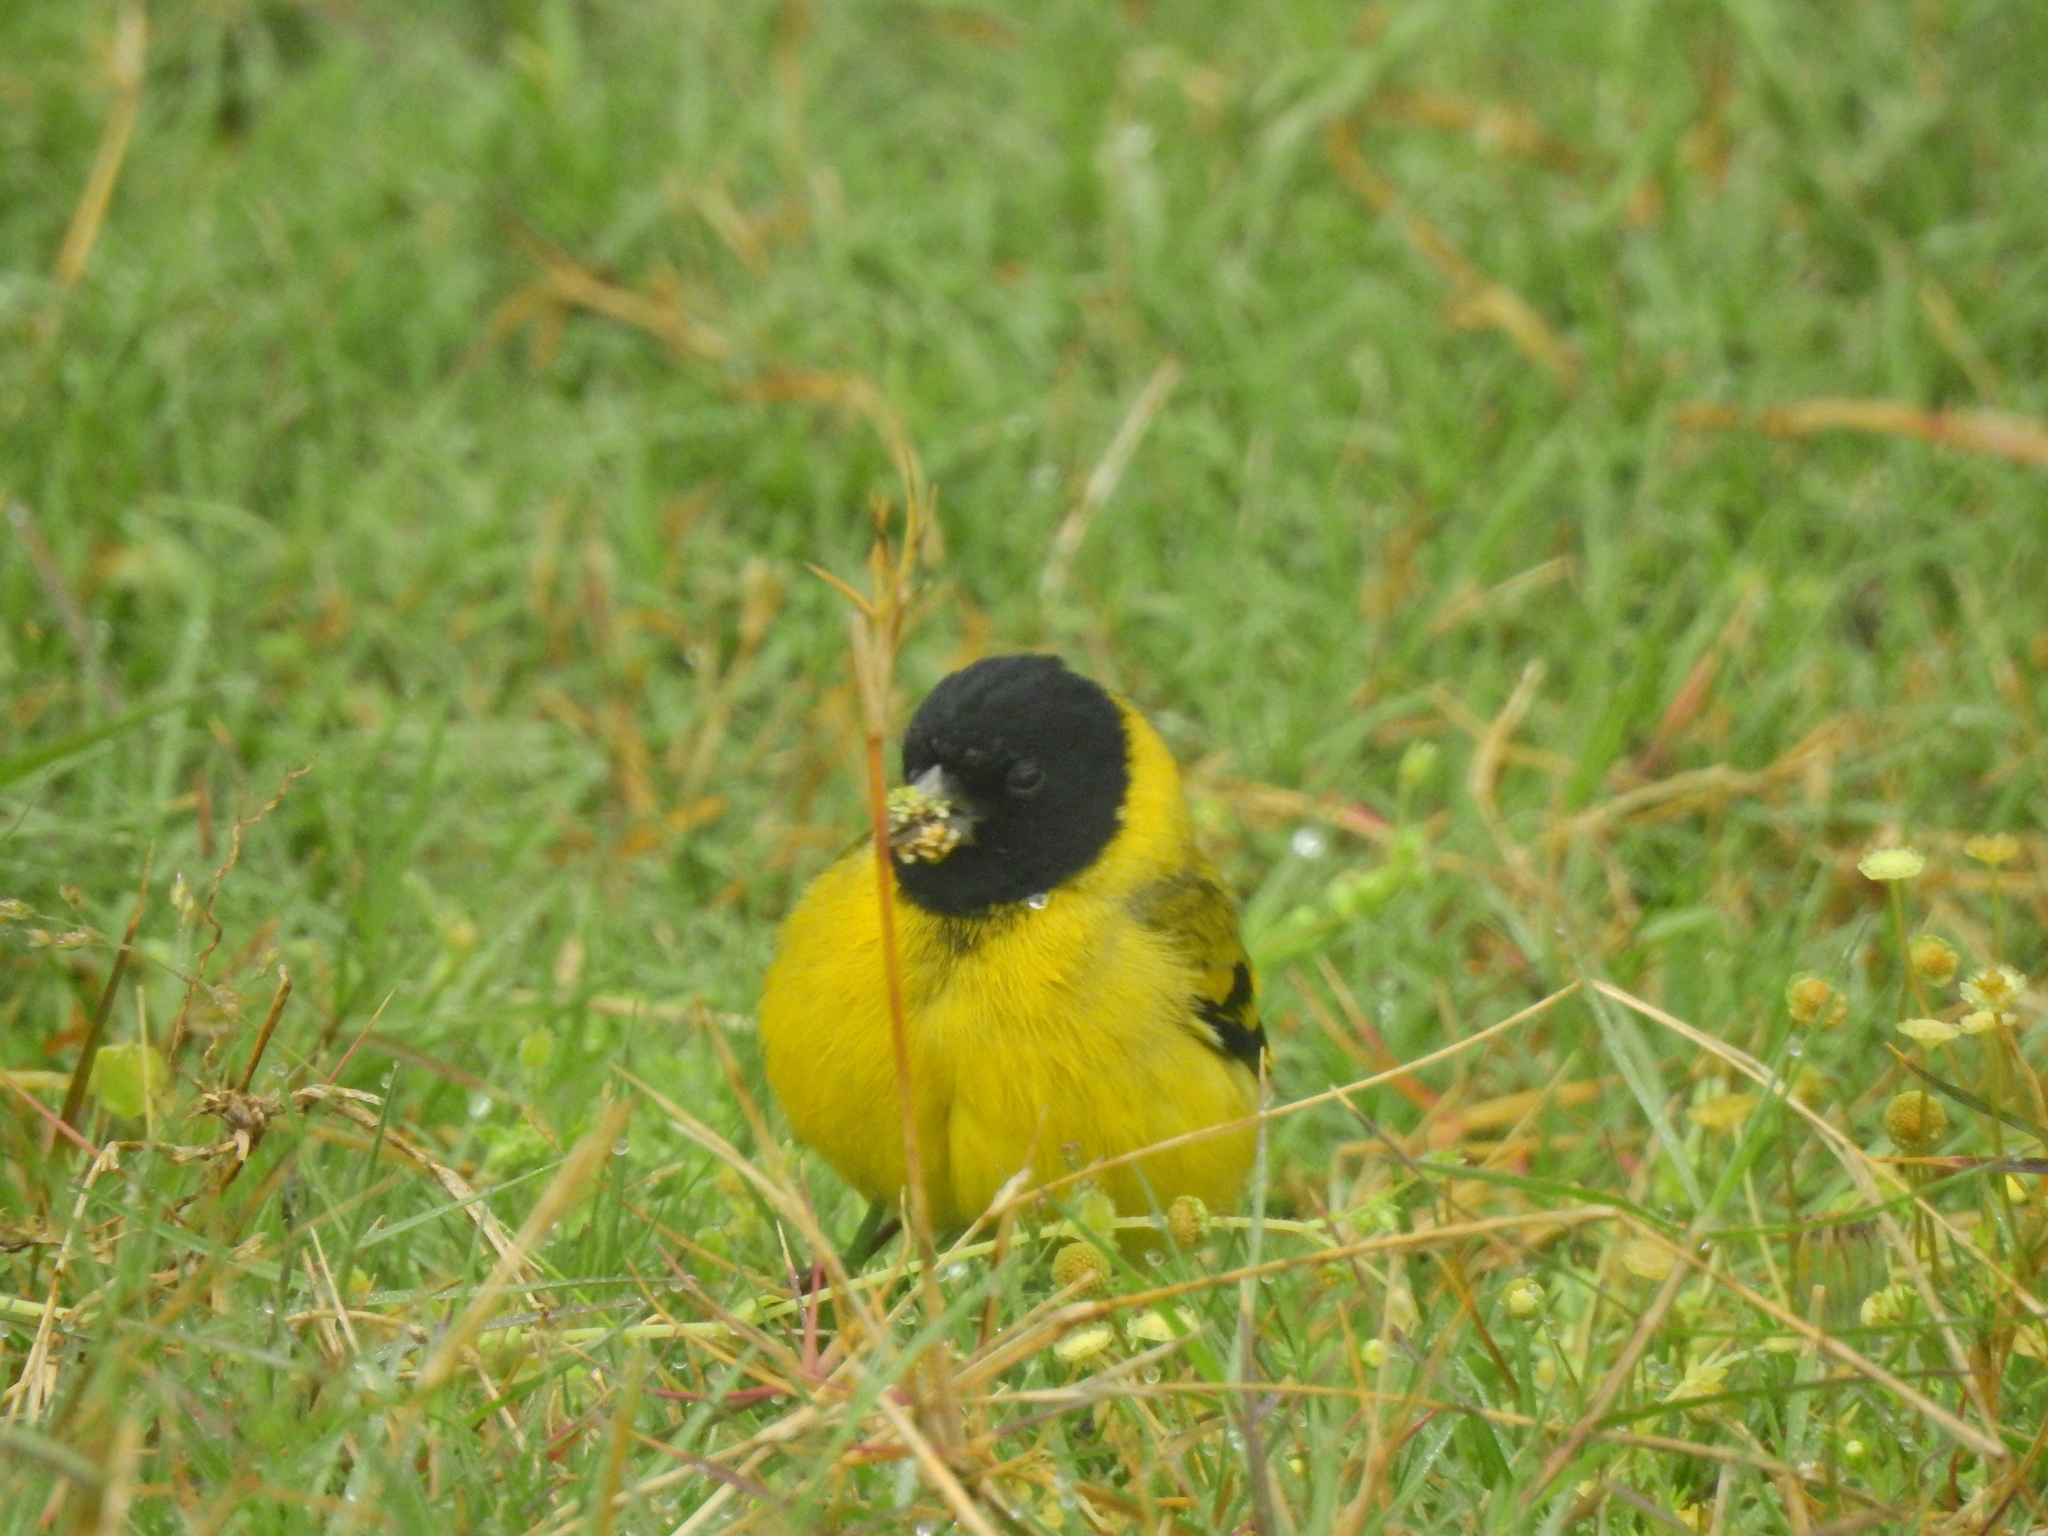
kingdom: Animalia
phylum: Chordata
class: Aves
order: Passeriformes
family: Fringillidae
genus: Spinus
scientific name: Spinus magellanicus
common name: Hooded siskin
